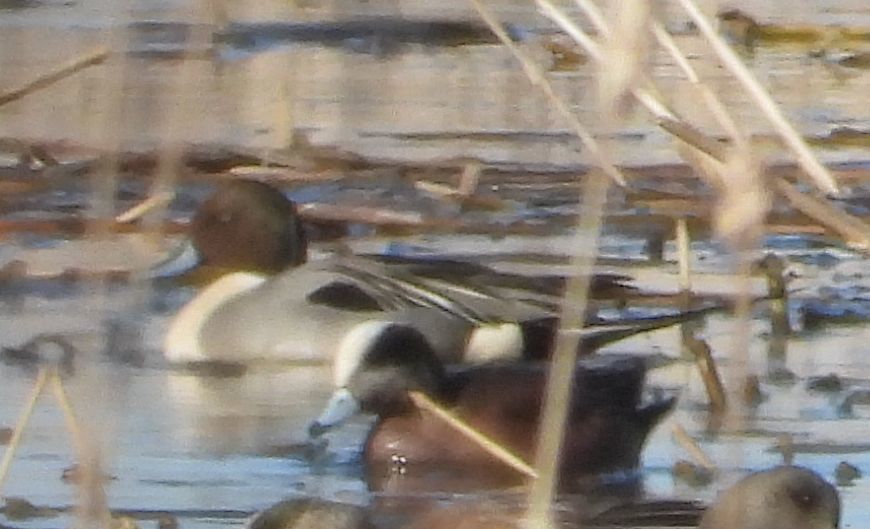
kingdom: Animalia
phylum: Chordata
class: Aves
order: Anseriformes
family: Anatidae
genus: Anas
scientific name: Anas acuta
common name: Northern pintail
